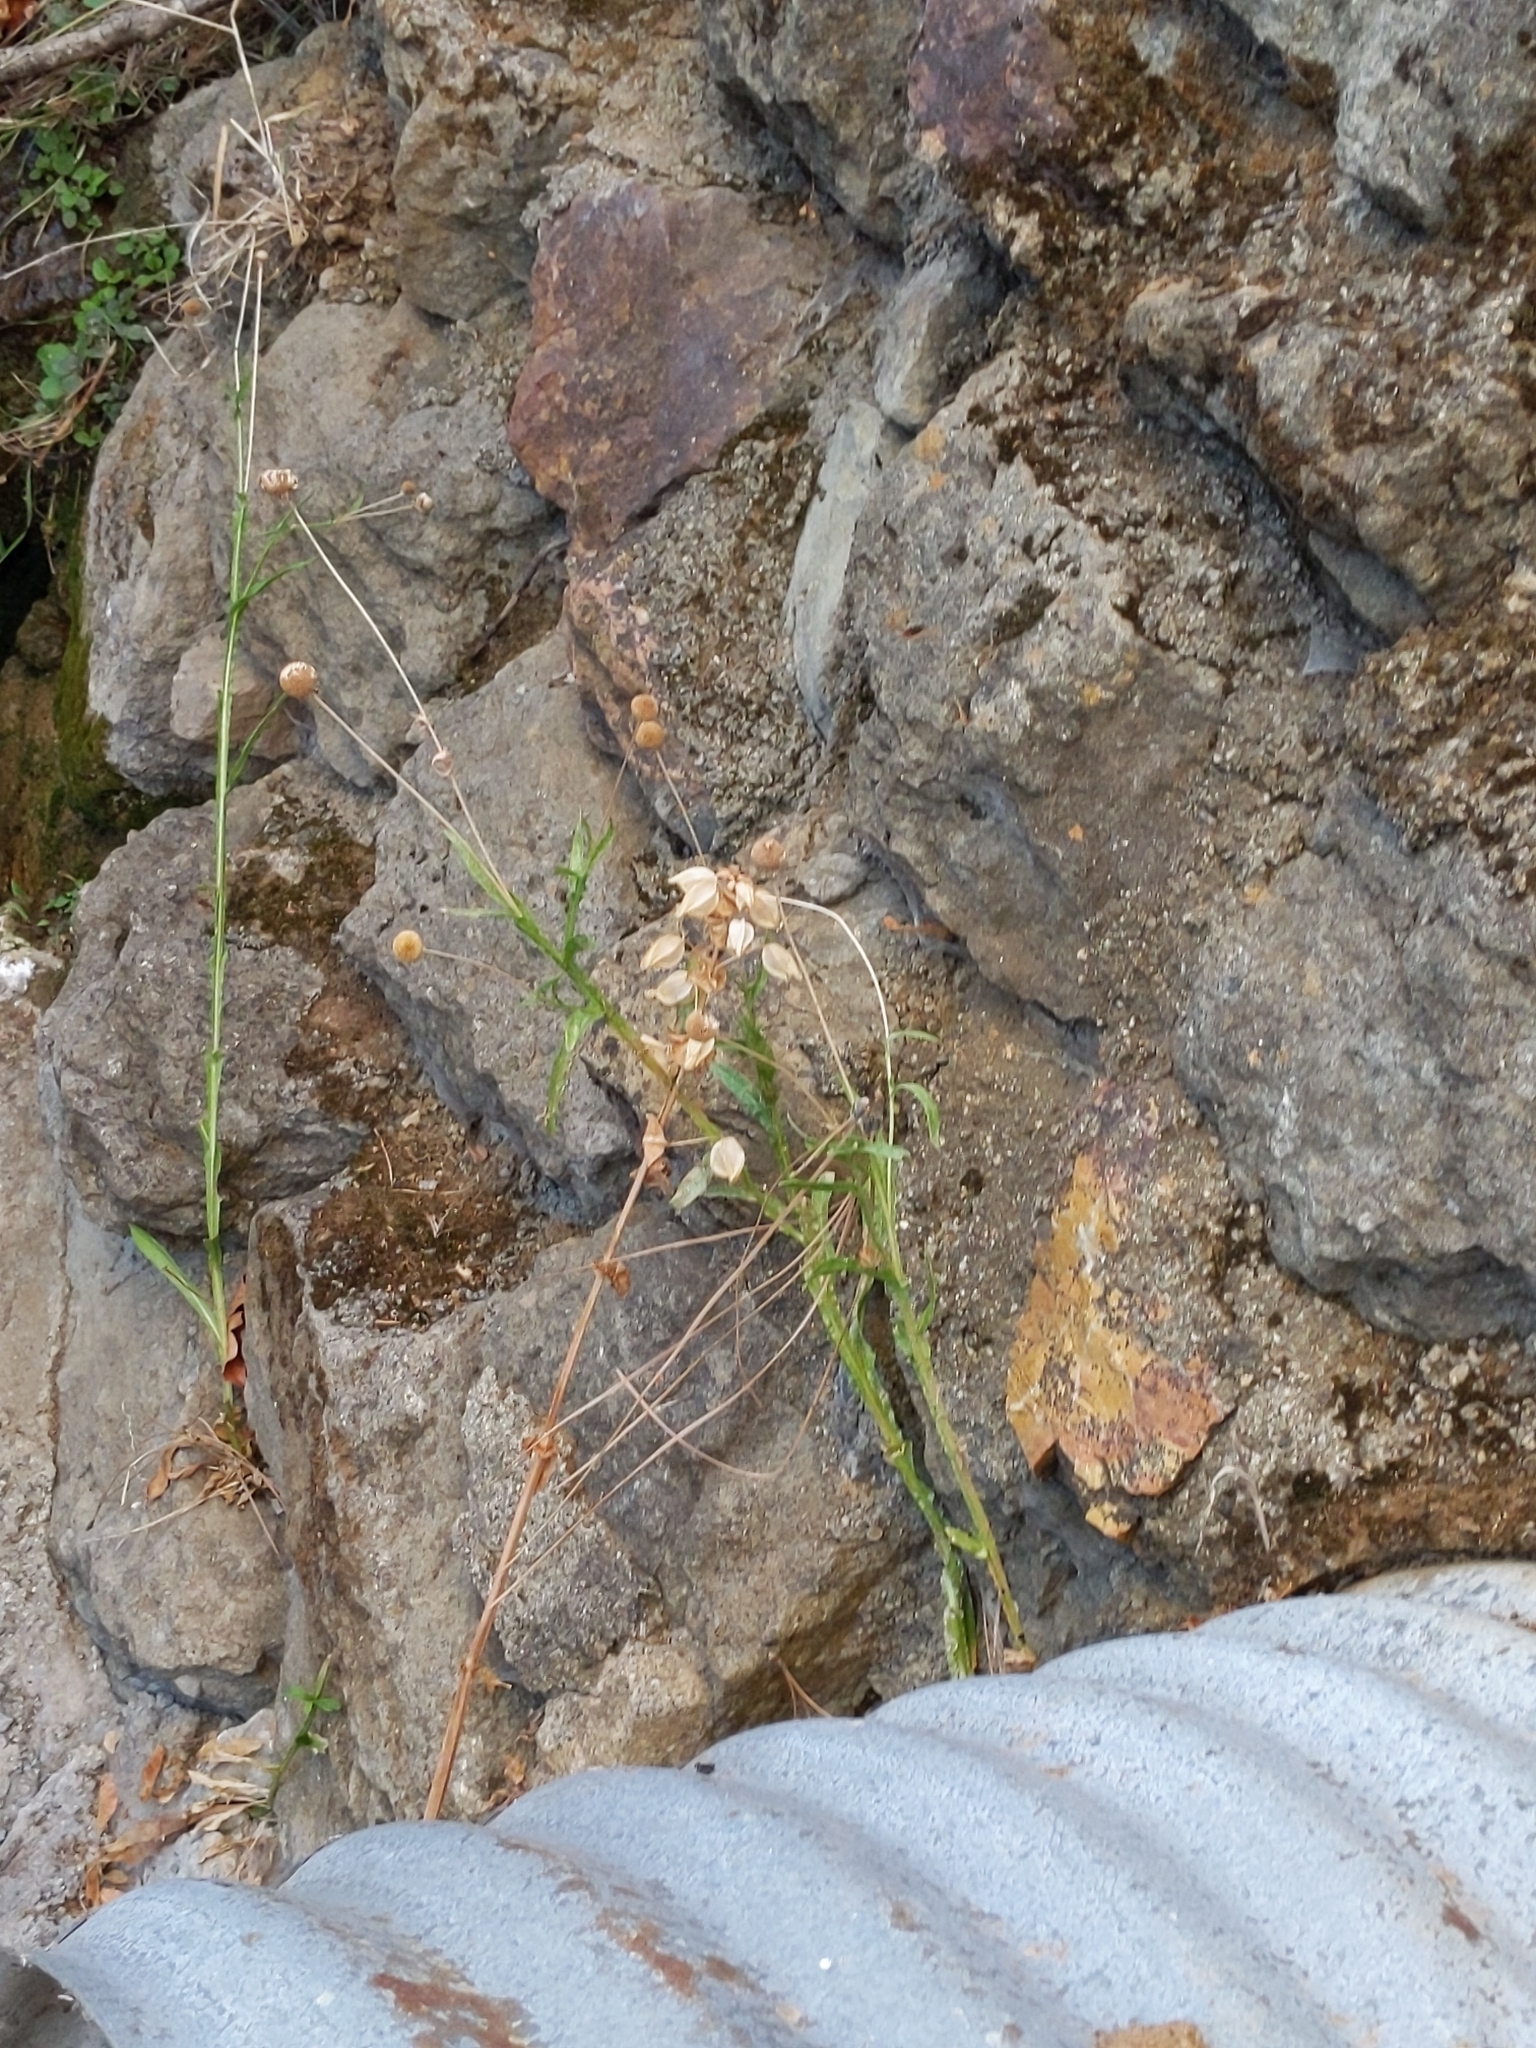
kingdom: Plantae
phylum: Tracheophyta
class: Magnoliopsida
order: Asterales
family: Asteraceae
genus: Helenium
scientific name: Helenium puberulum
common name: Sneezewort
